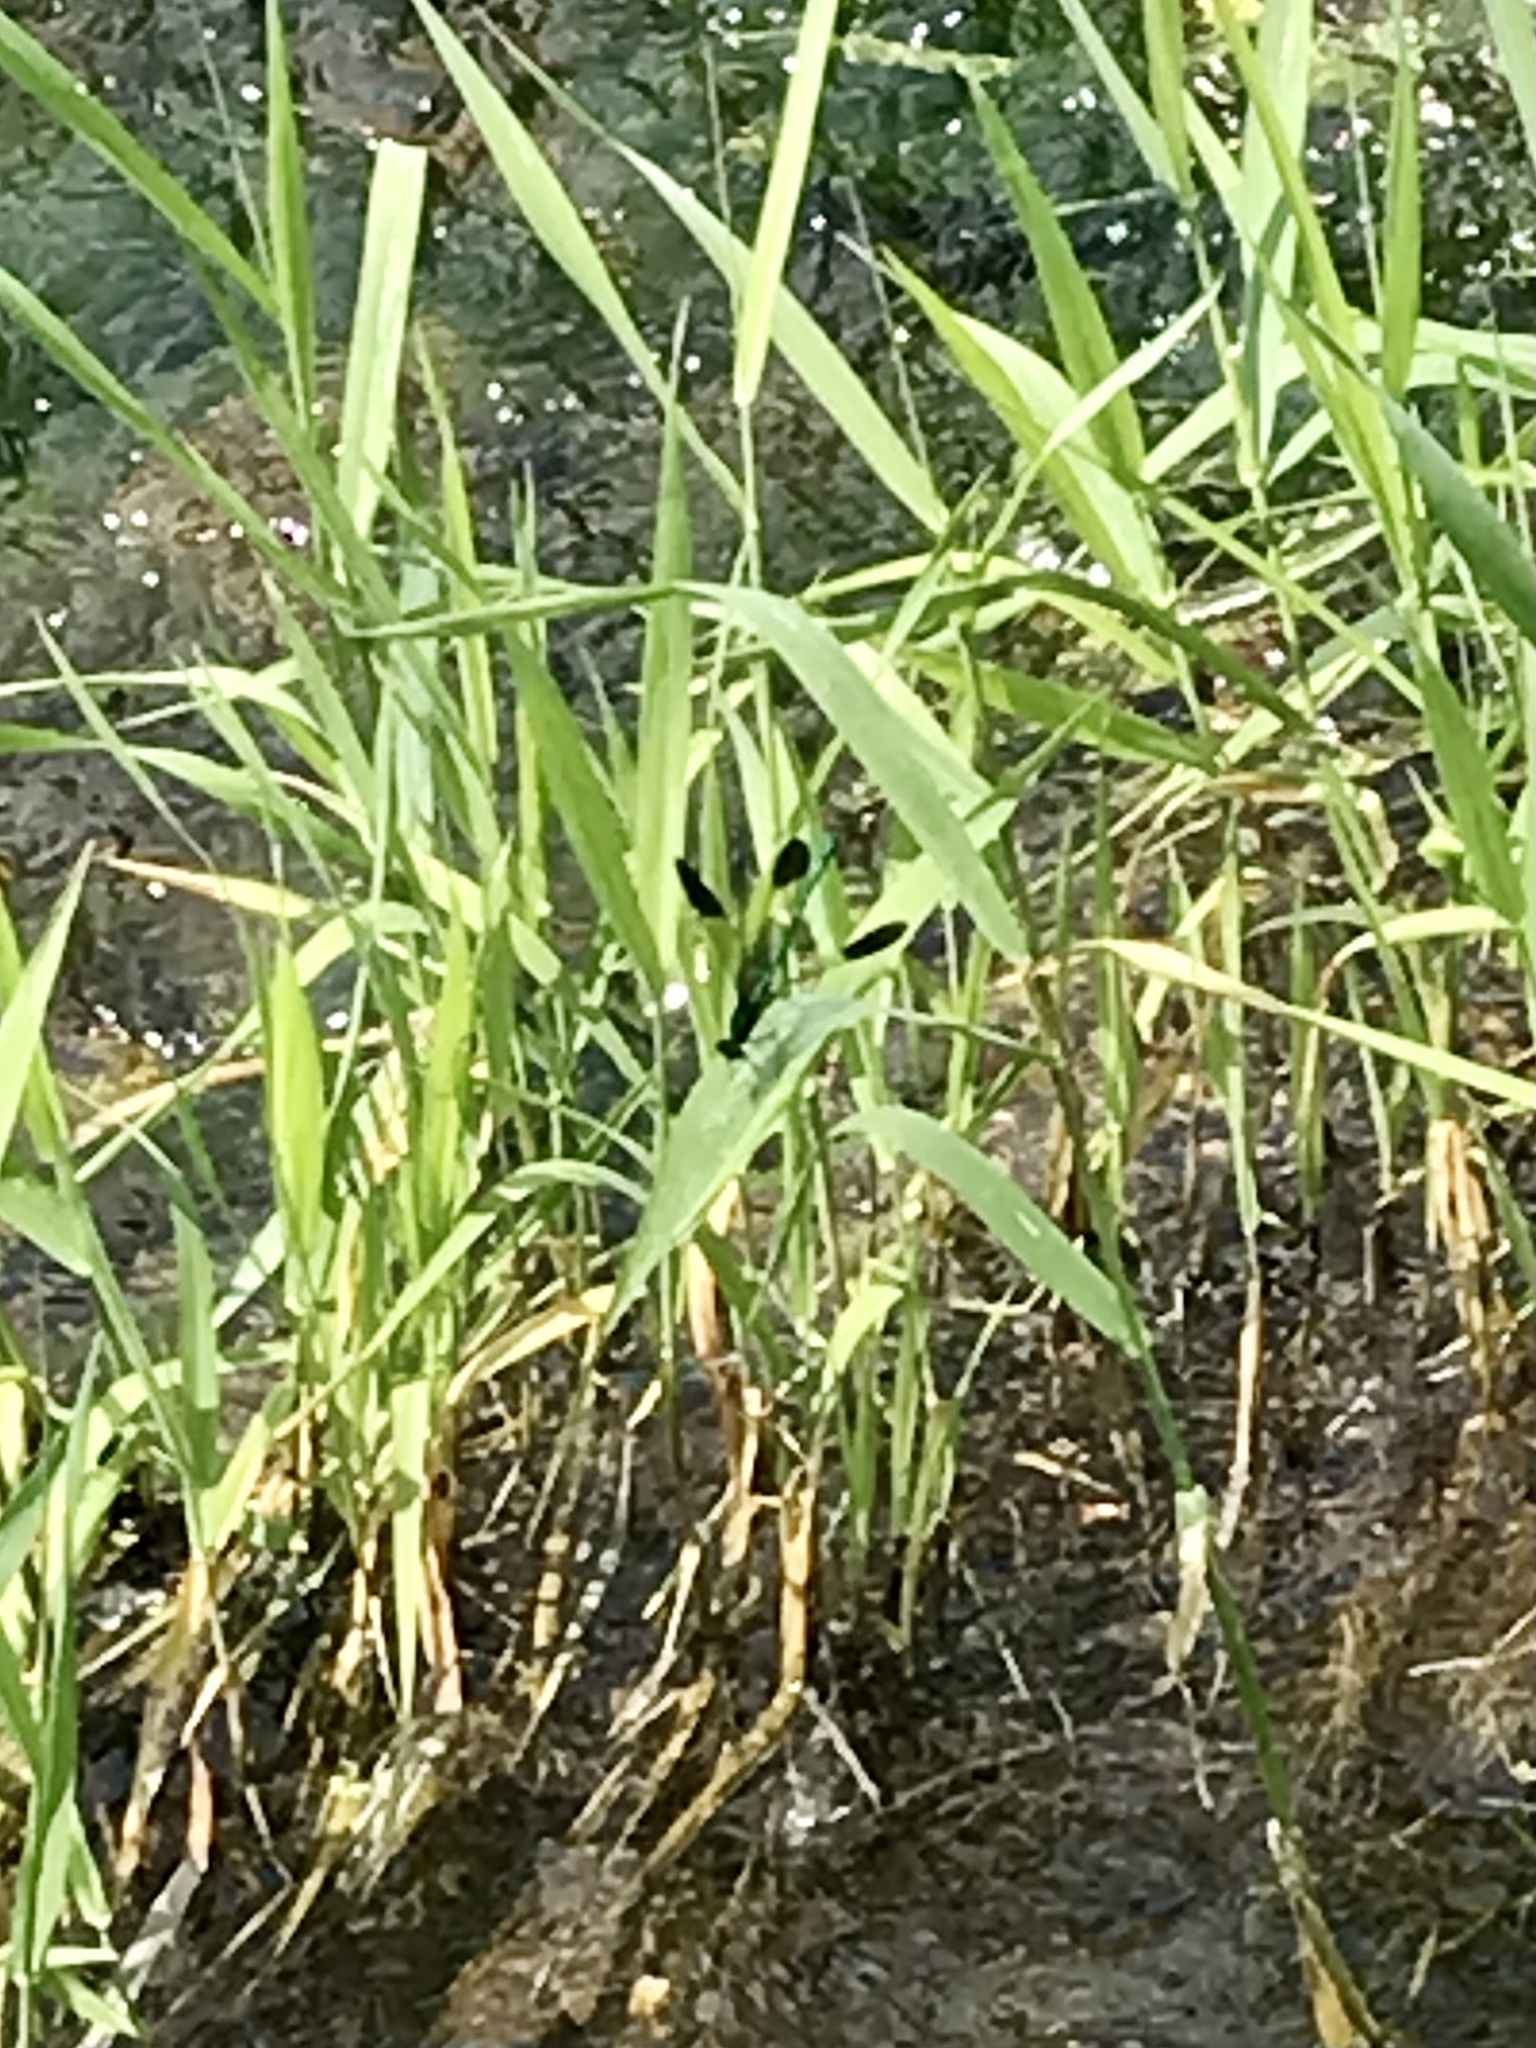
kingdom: Animalia
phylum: Arthropoda
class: Insecta
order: Odonata
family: Calopterygidae
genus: Calopteryx
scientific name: Calopteryx aequabilis
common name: River jewelwing
